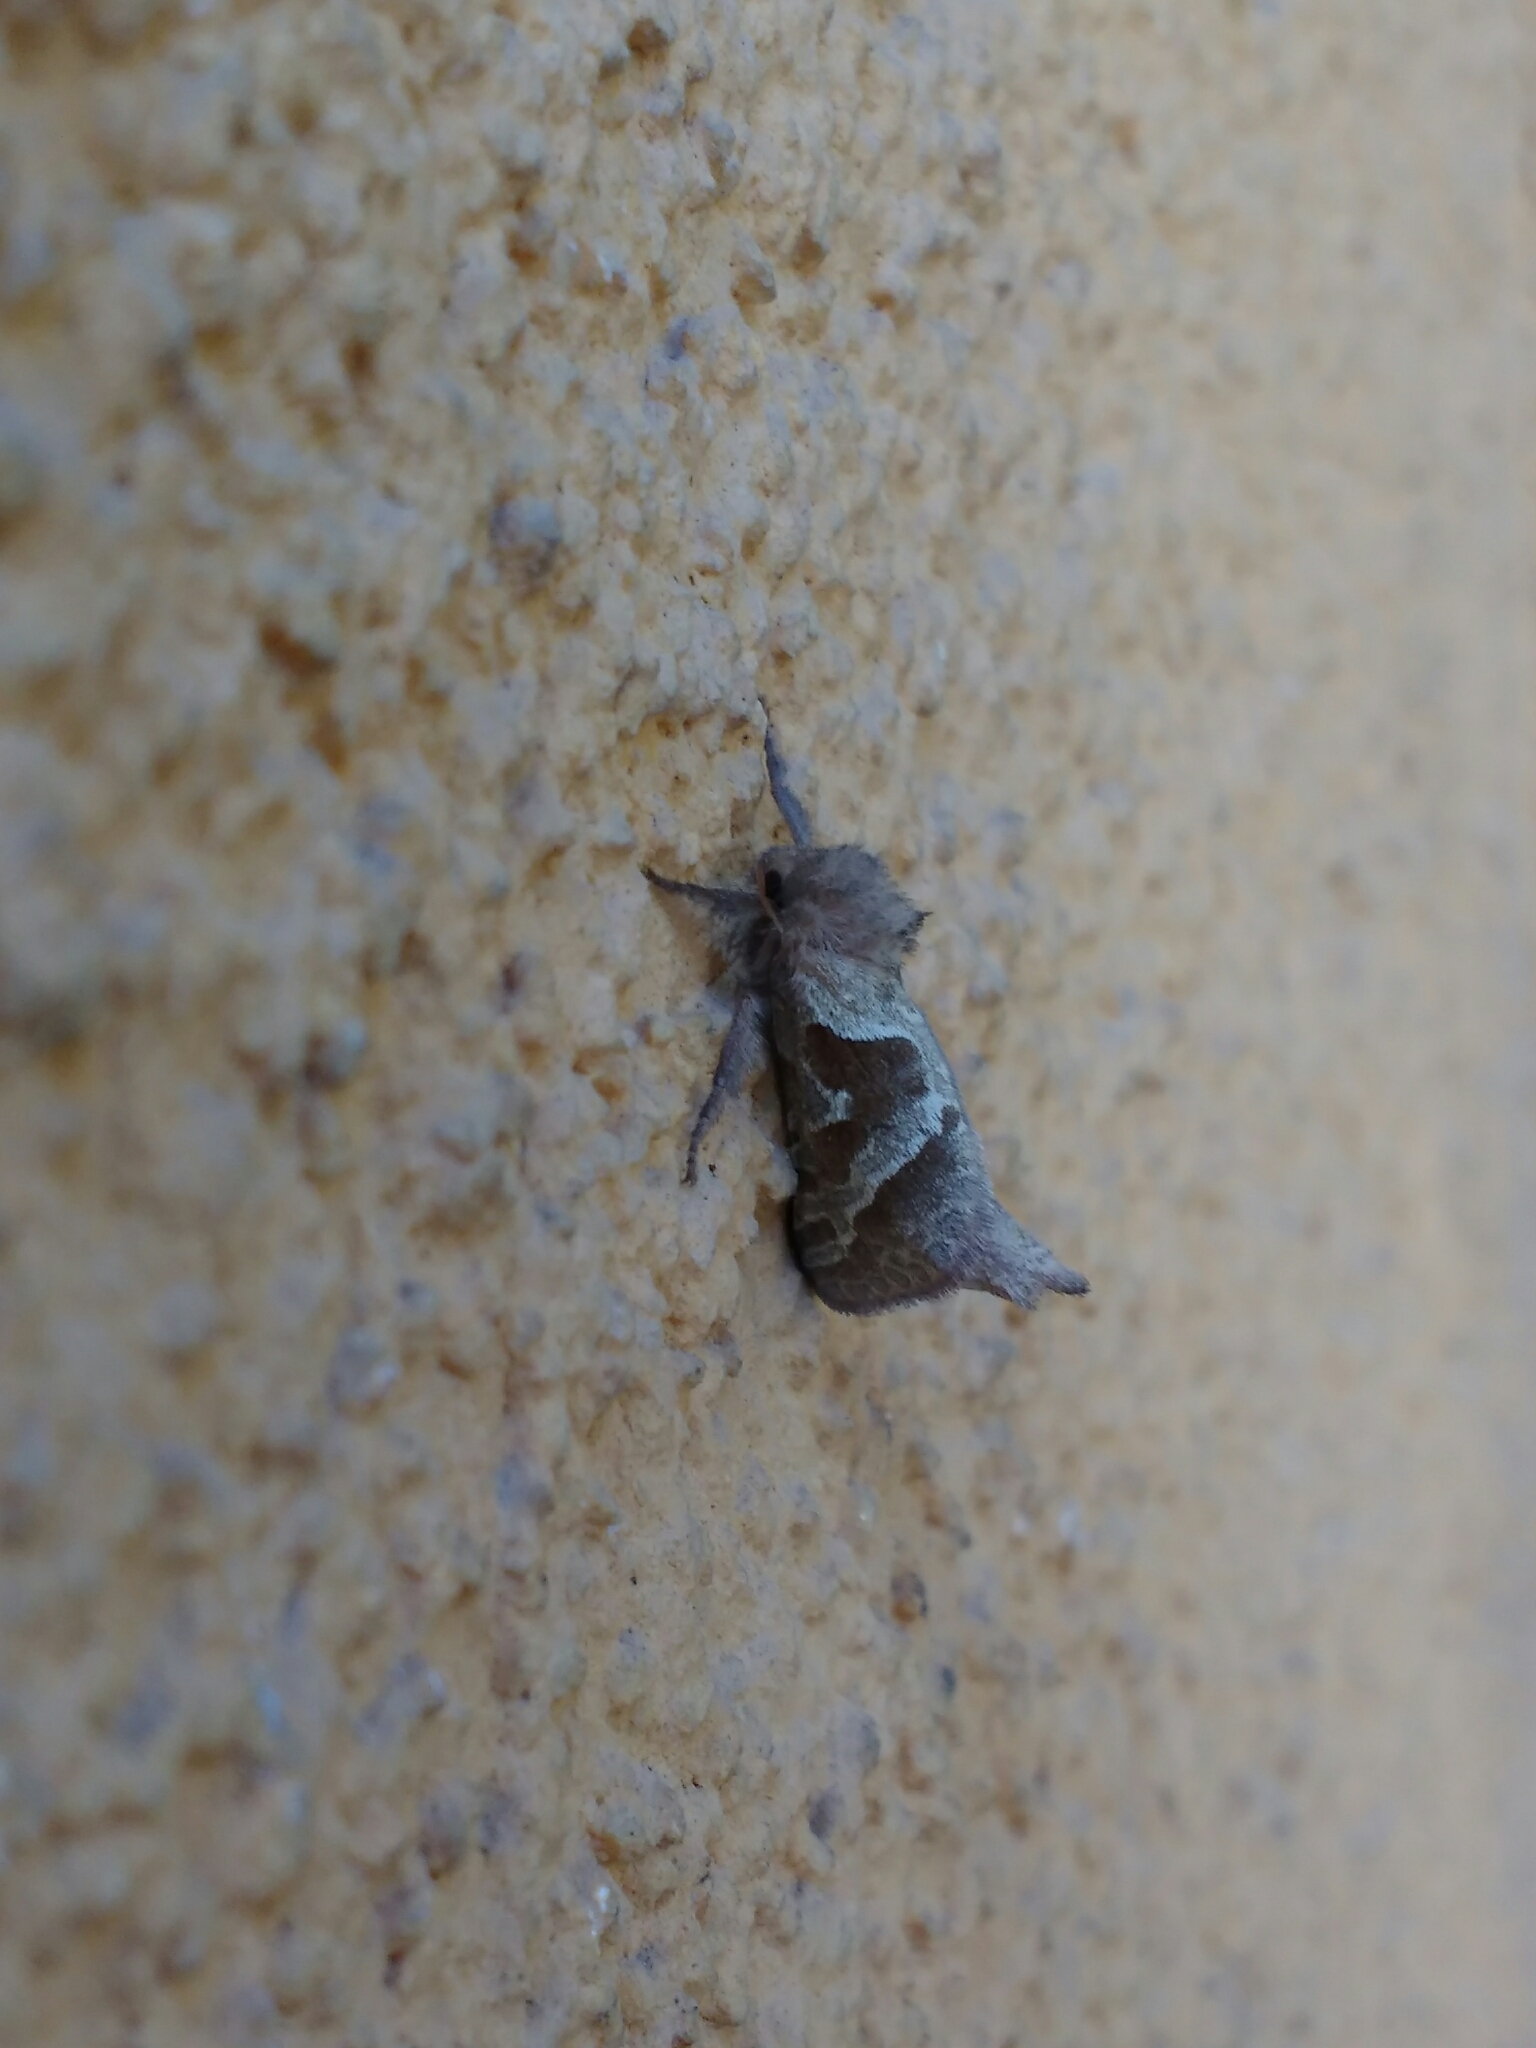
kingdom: Animalia
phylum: Arthropoda
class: Insecta
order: Lepidoptera
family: Hepialidae
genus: Triodia
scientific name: Triodia sylvina
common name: Orange swift
